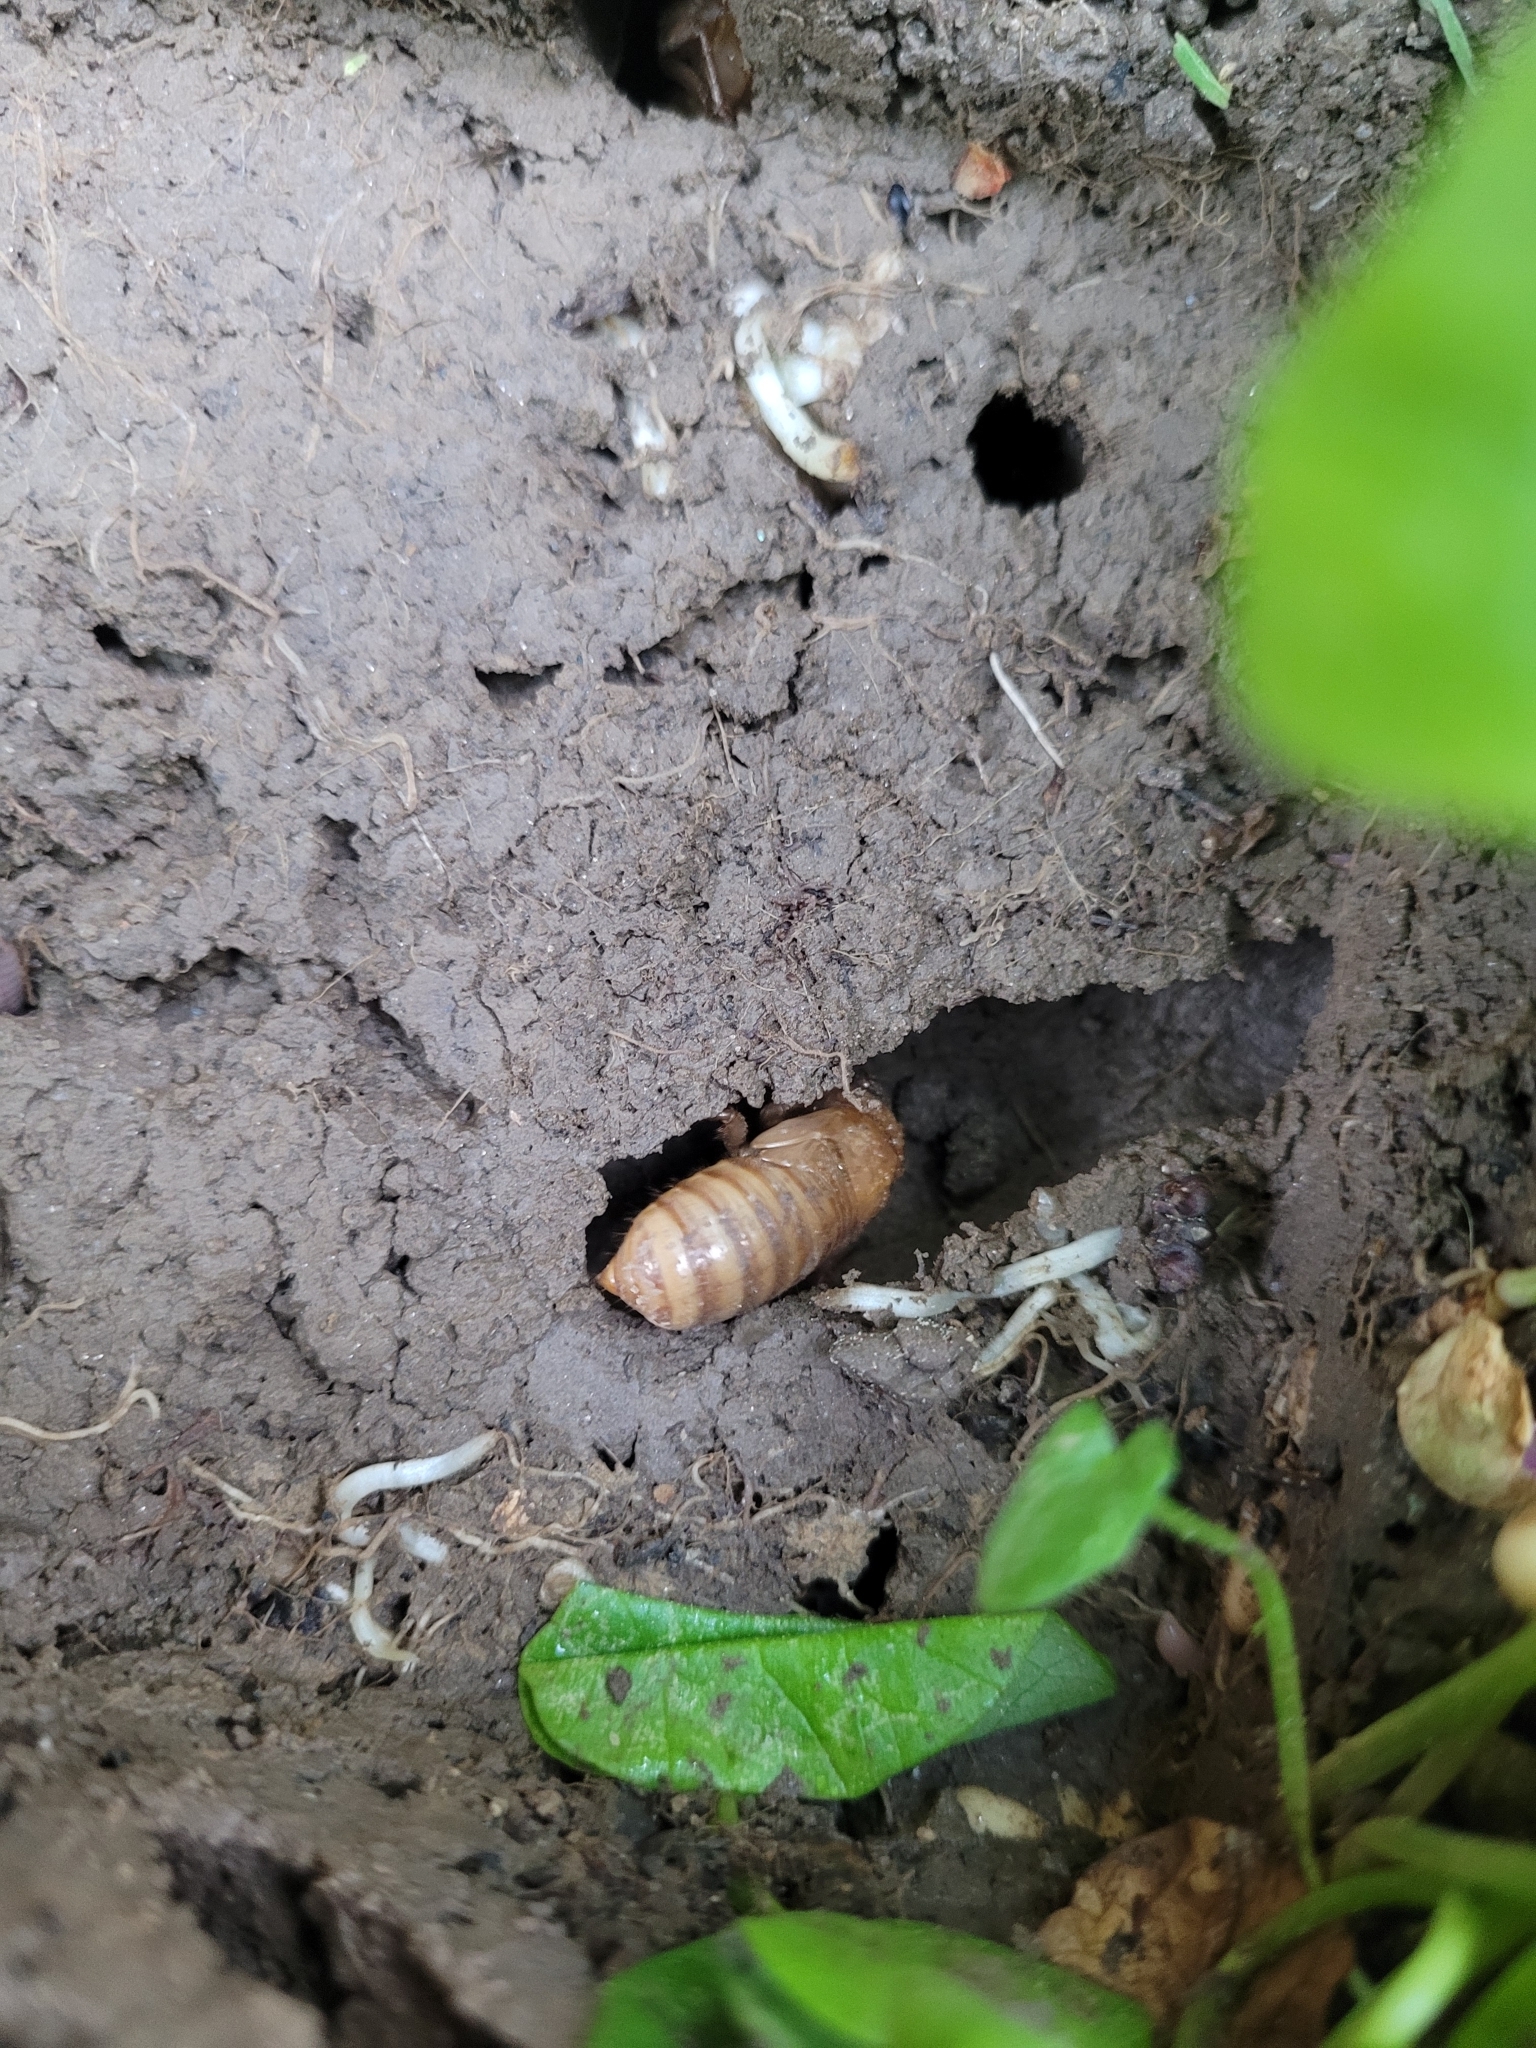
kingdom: Animalia
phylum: Arthropoda
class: Insecta
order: Hemiptera
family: Cicadidae
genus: Magicicada
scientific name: Magicicada
